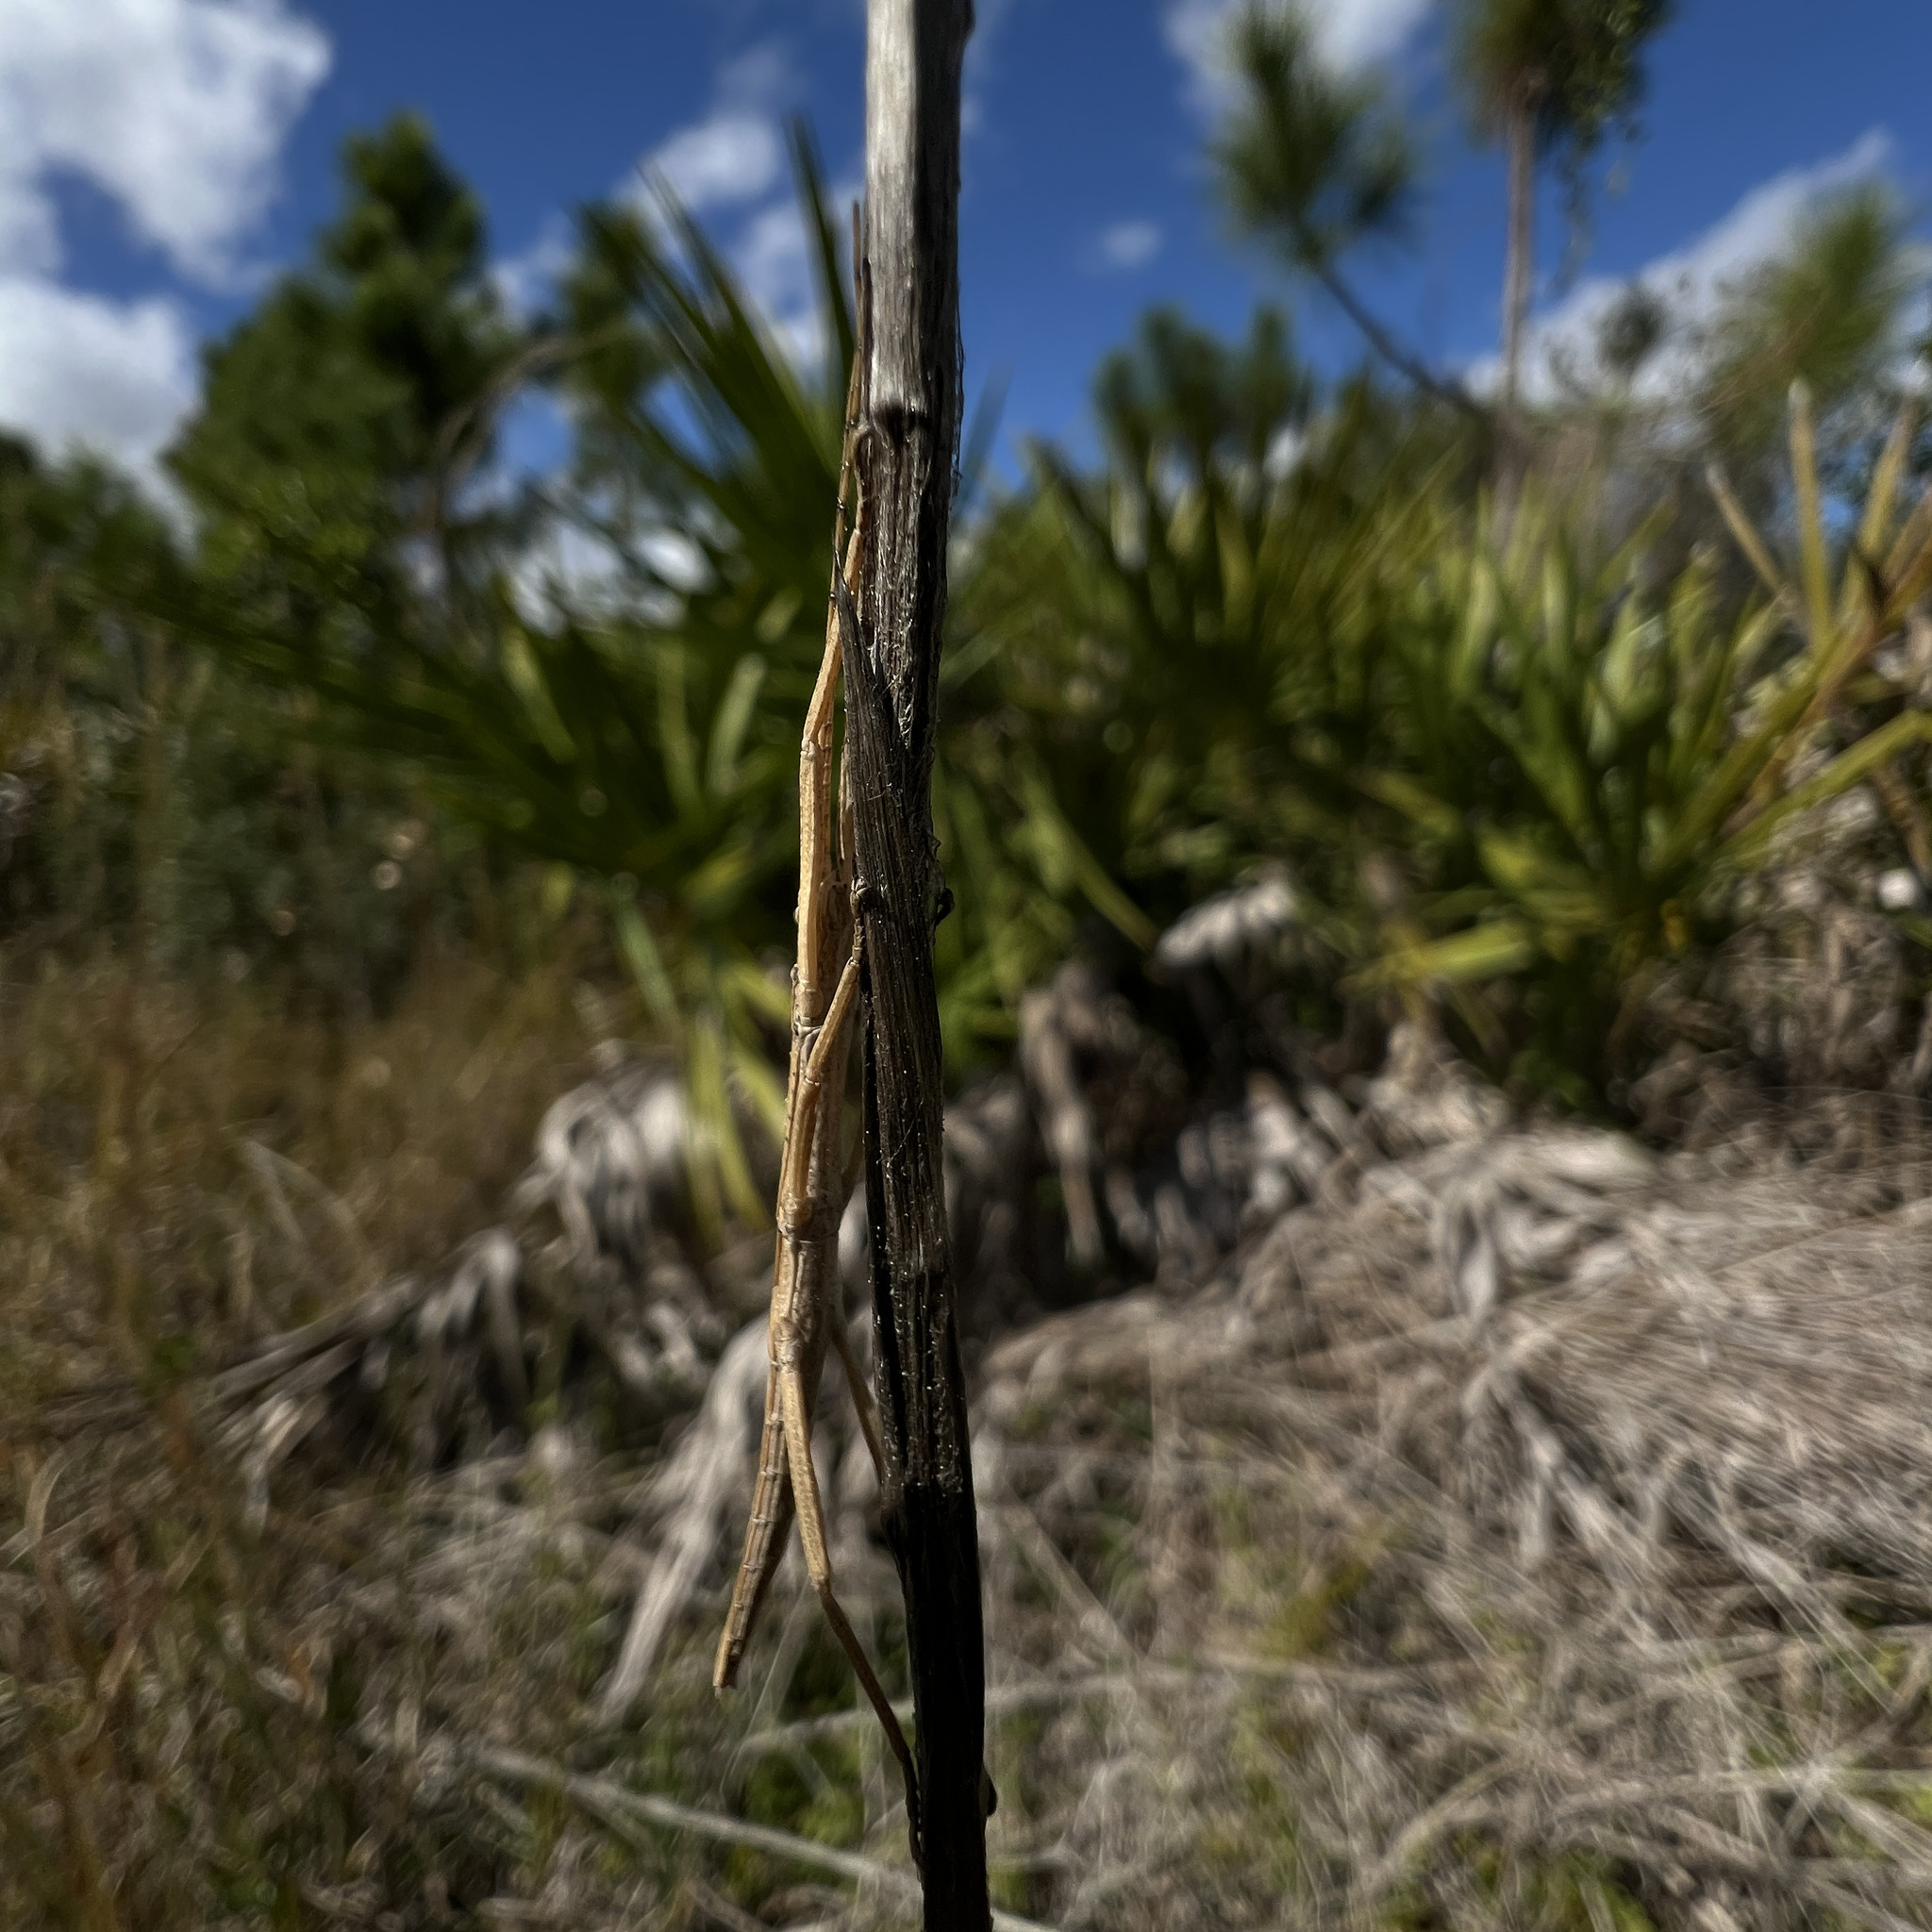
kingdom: Animalia
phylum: Arthropoda
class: Insecta
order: Phasmida
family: Pseudophasmatidae
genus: Anisomorpha
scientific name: Anisomorpha buprestoides
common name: Florida stick insect
